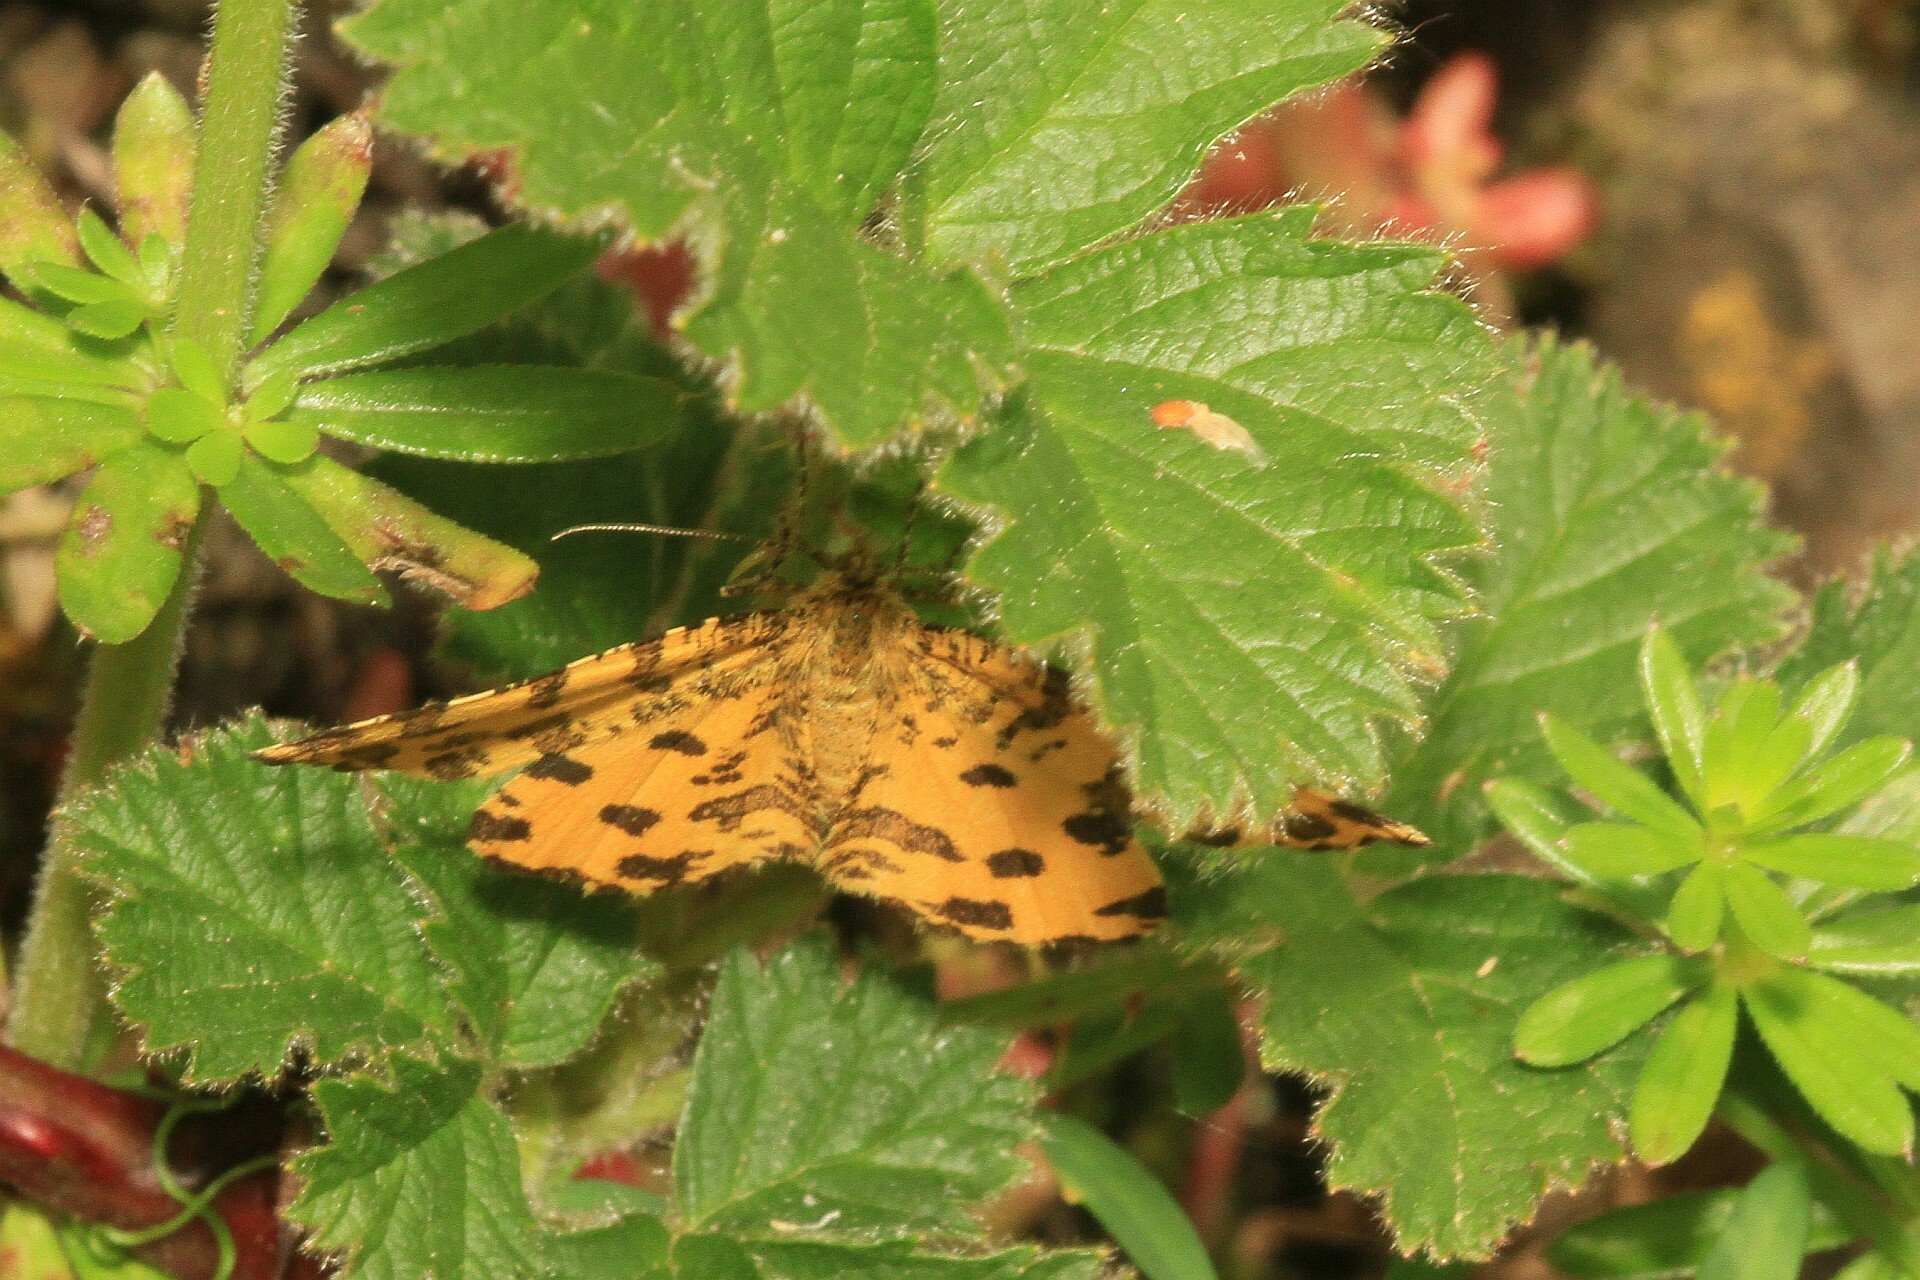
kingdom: Animalia
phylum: Arthropoda
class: Insecta
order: Lepidoptera
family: Geometridae
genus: Pseudopanthera
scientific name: Pseudopanthera macularia
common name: Speckled yellow
